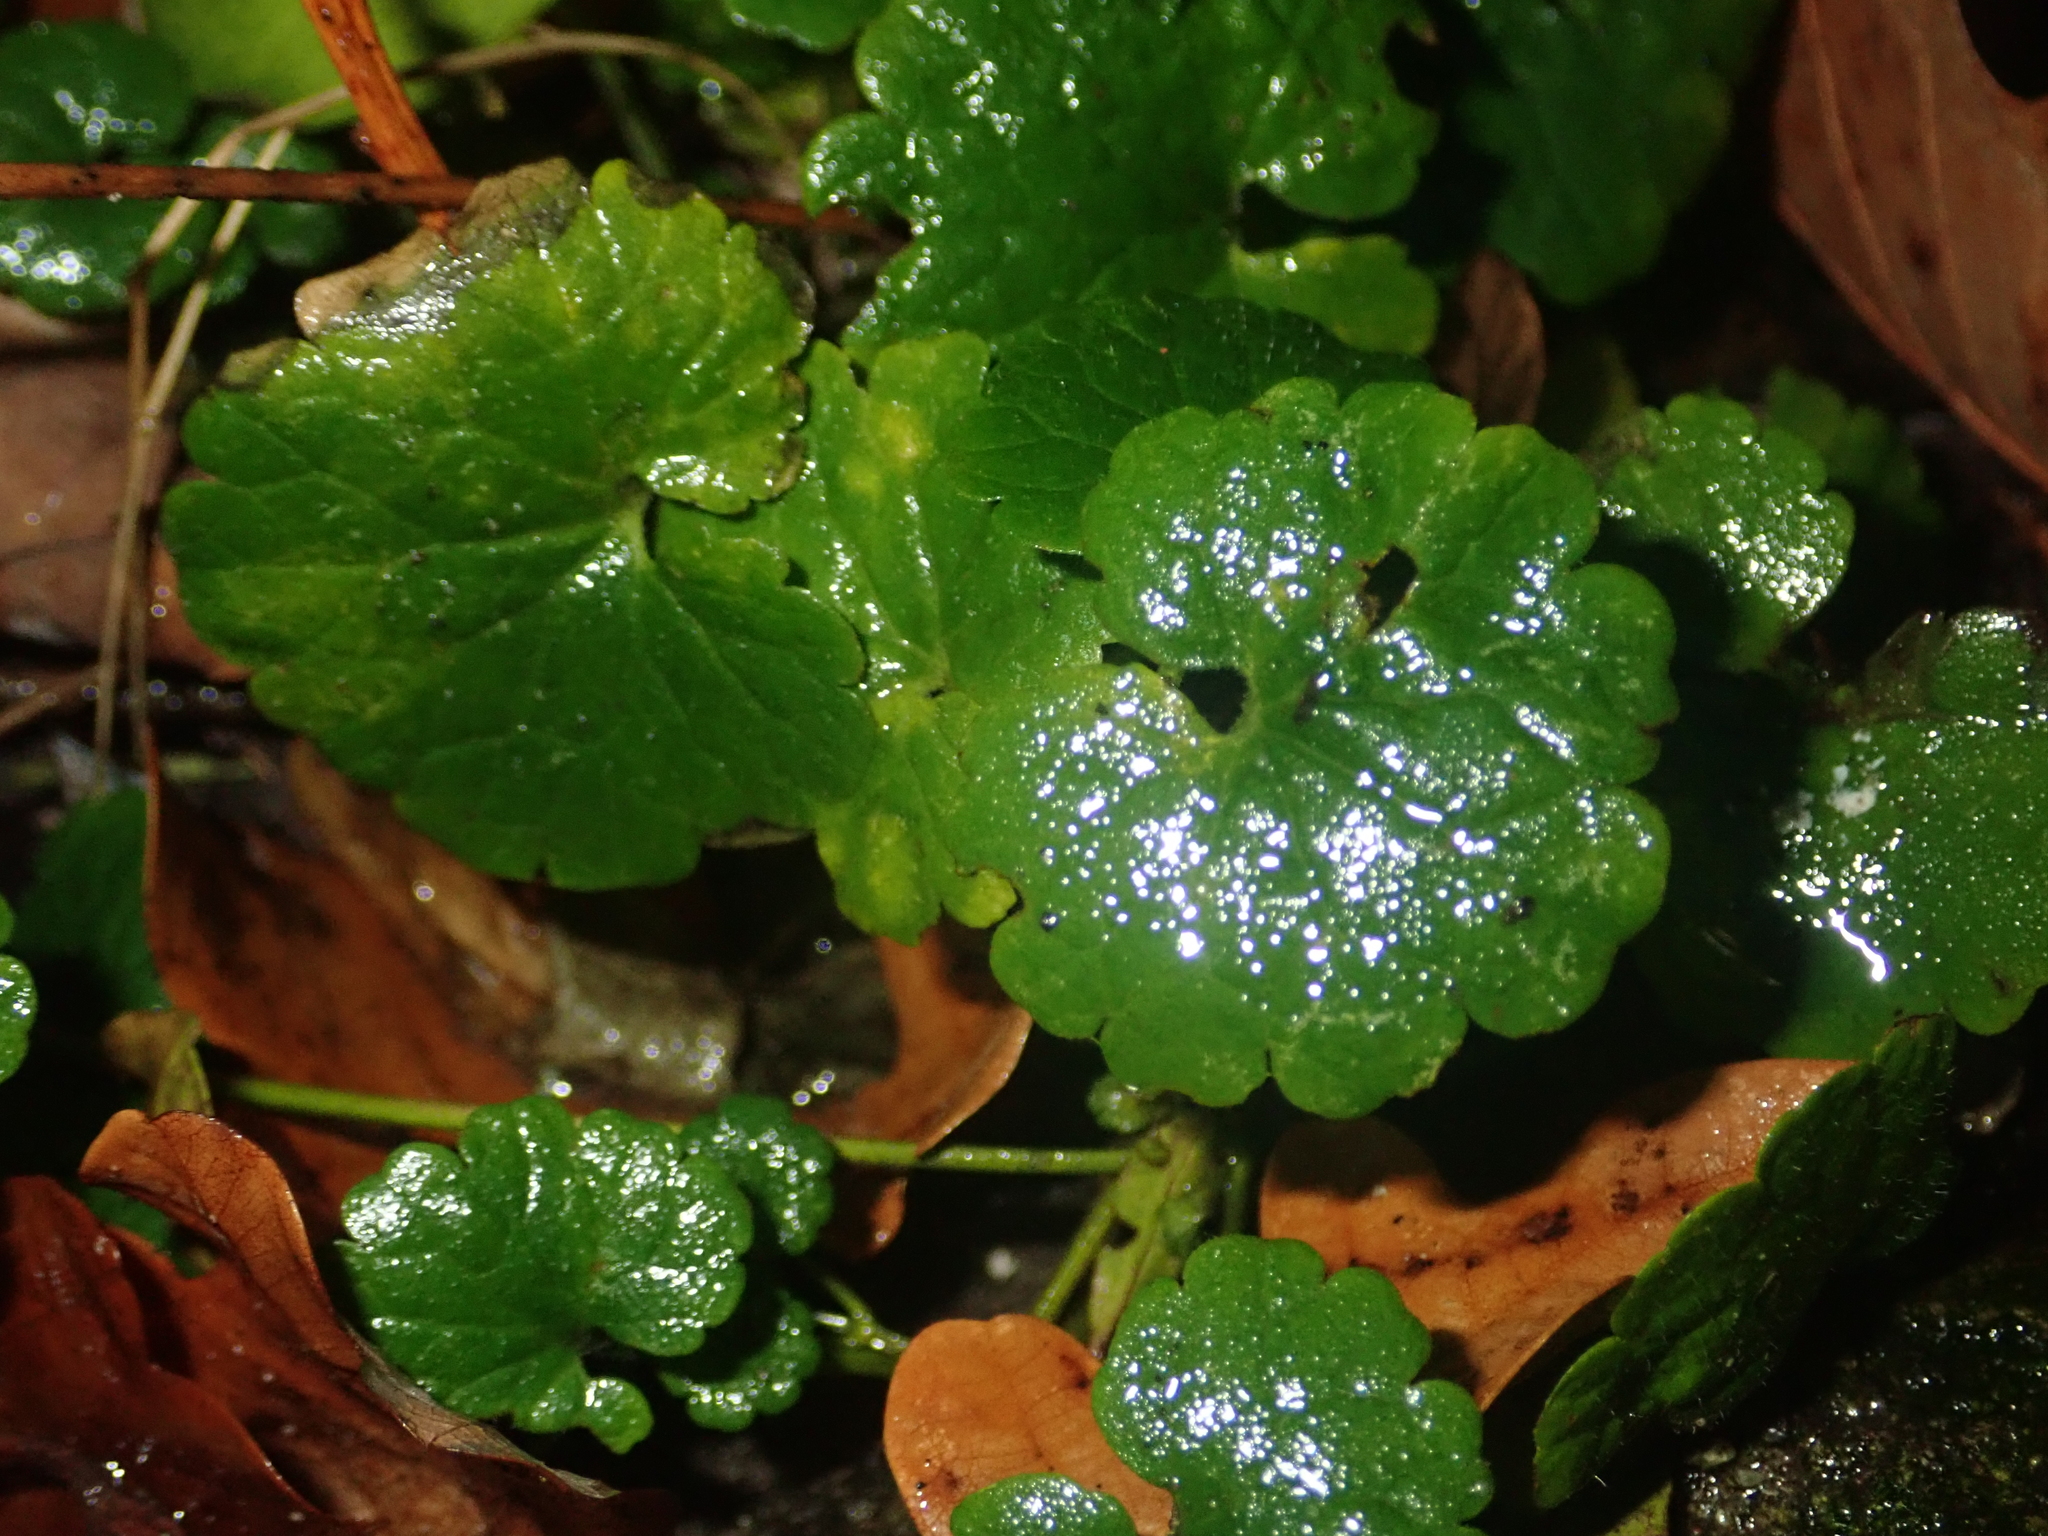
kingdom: Plantae
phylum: Tracheophyta
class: Magnoliopsida
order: Lamiales
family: Lamiaceae
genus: Glechoma
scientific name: Glechoma hederacea
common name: Ground ivy
